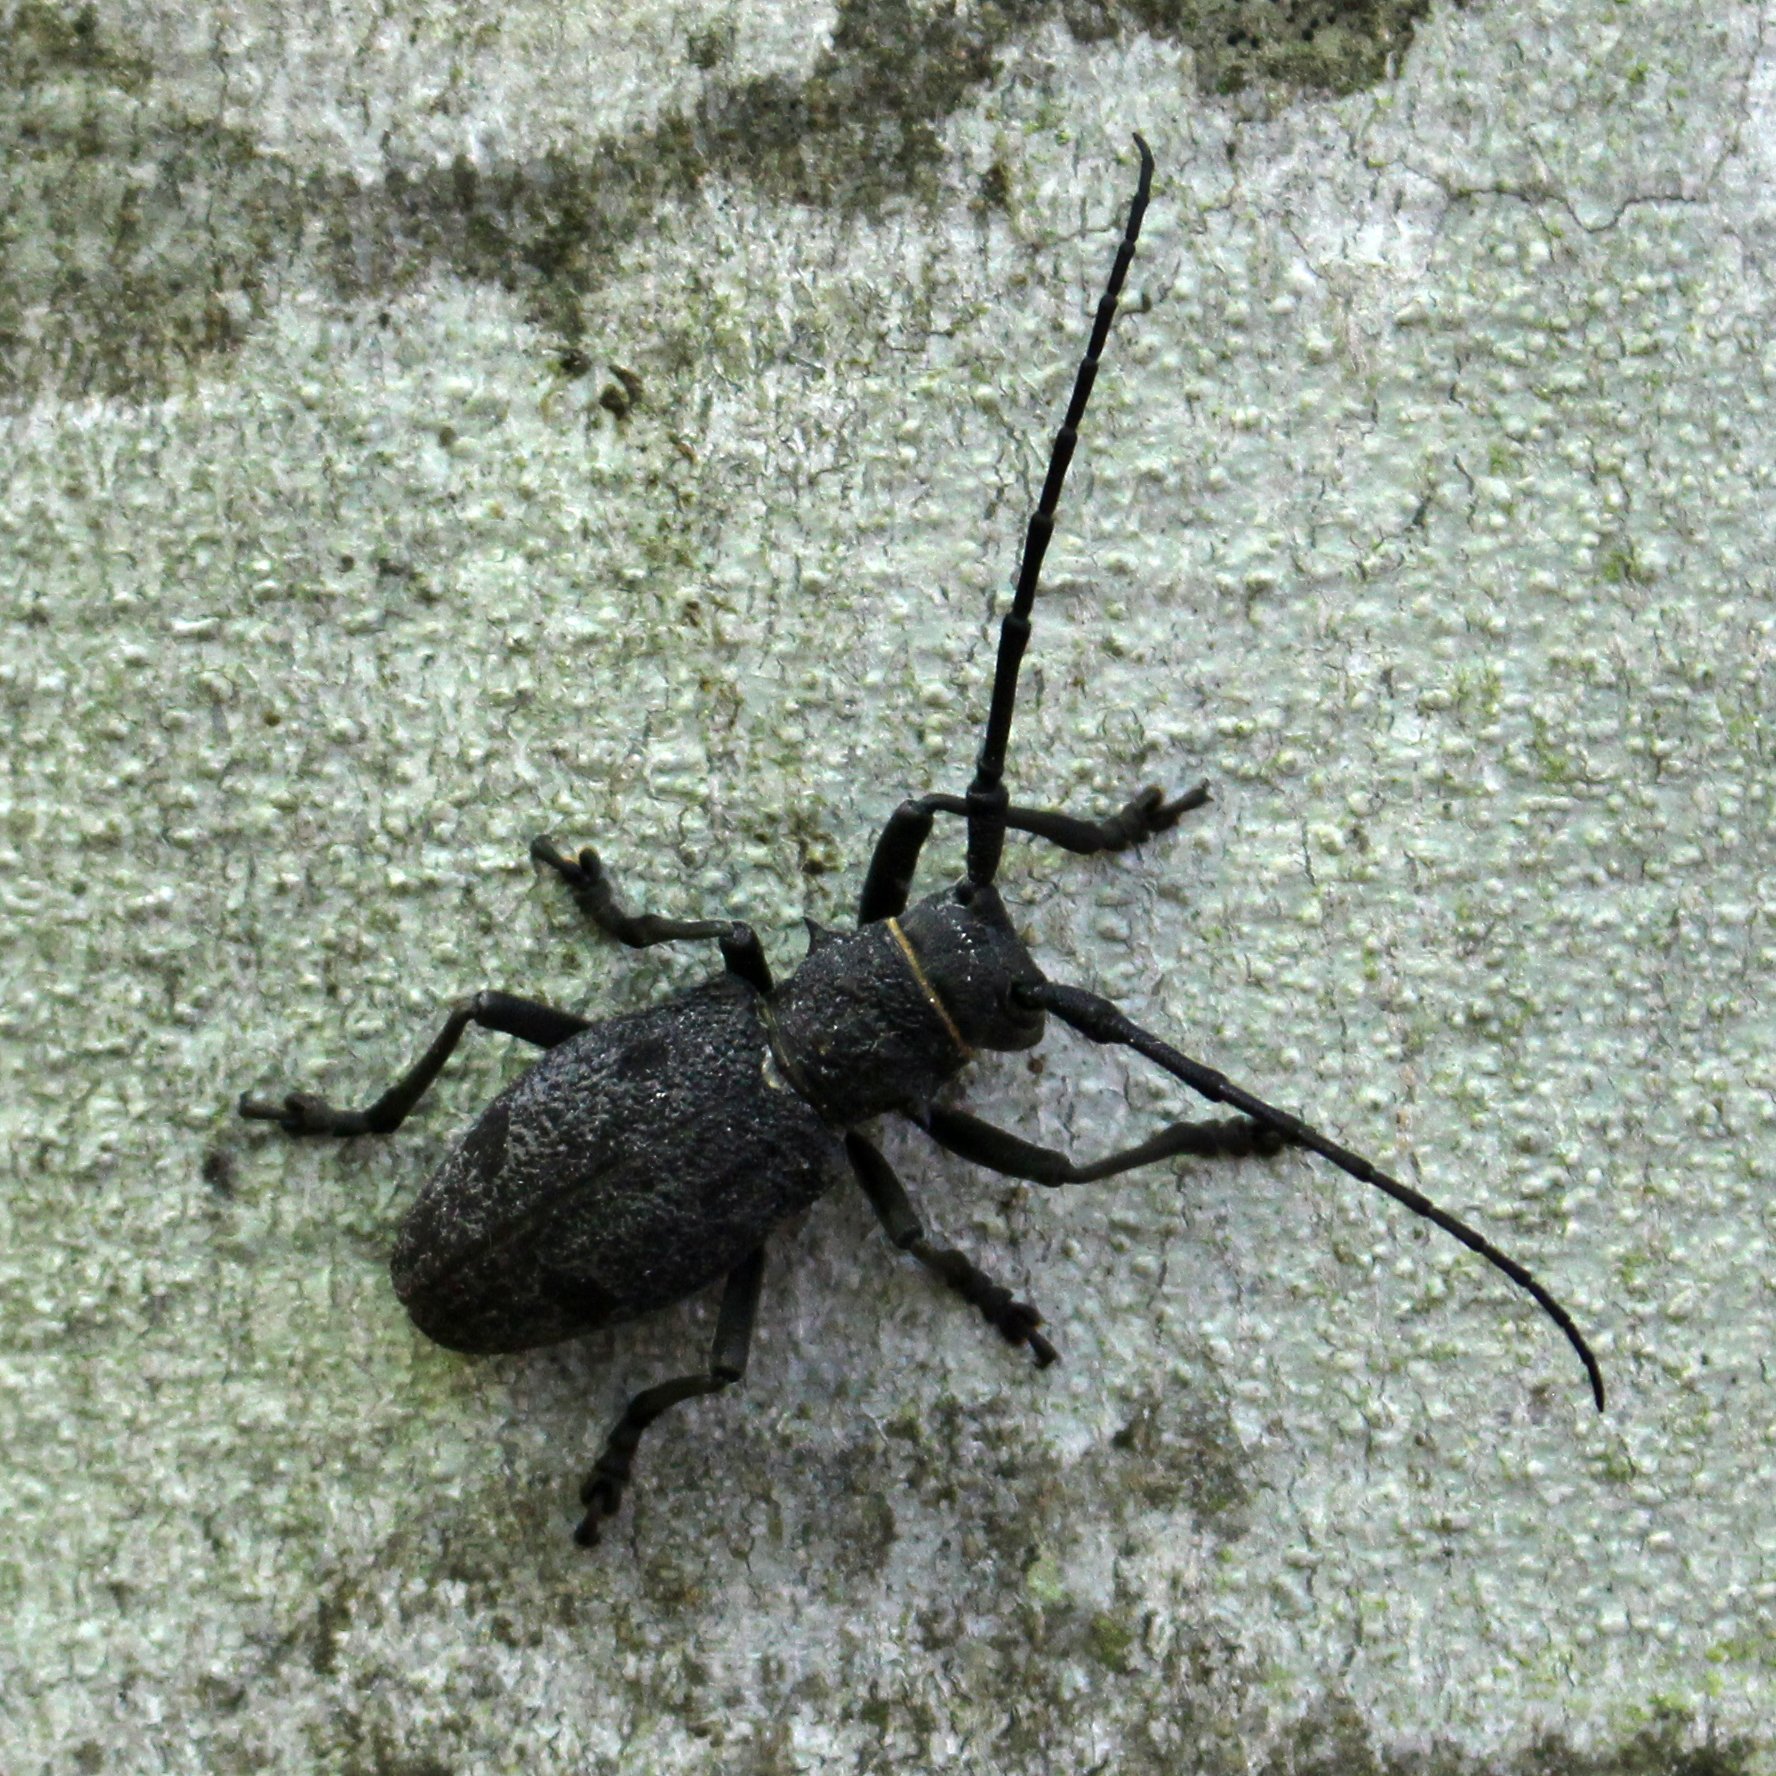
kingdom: Animalia
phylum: Arthropoda
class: Insecta
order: Coleoptera
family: Cerambycidae
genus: Morimus
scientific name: Morimus verecundus
